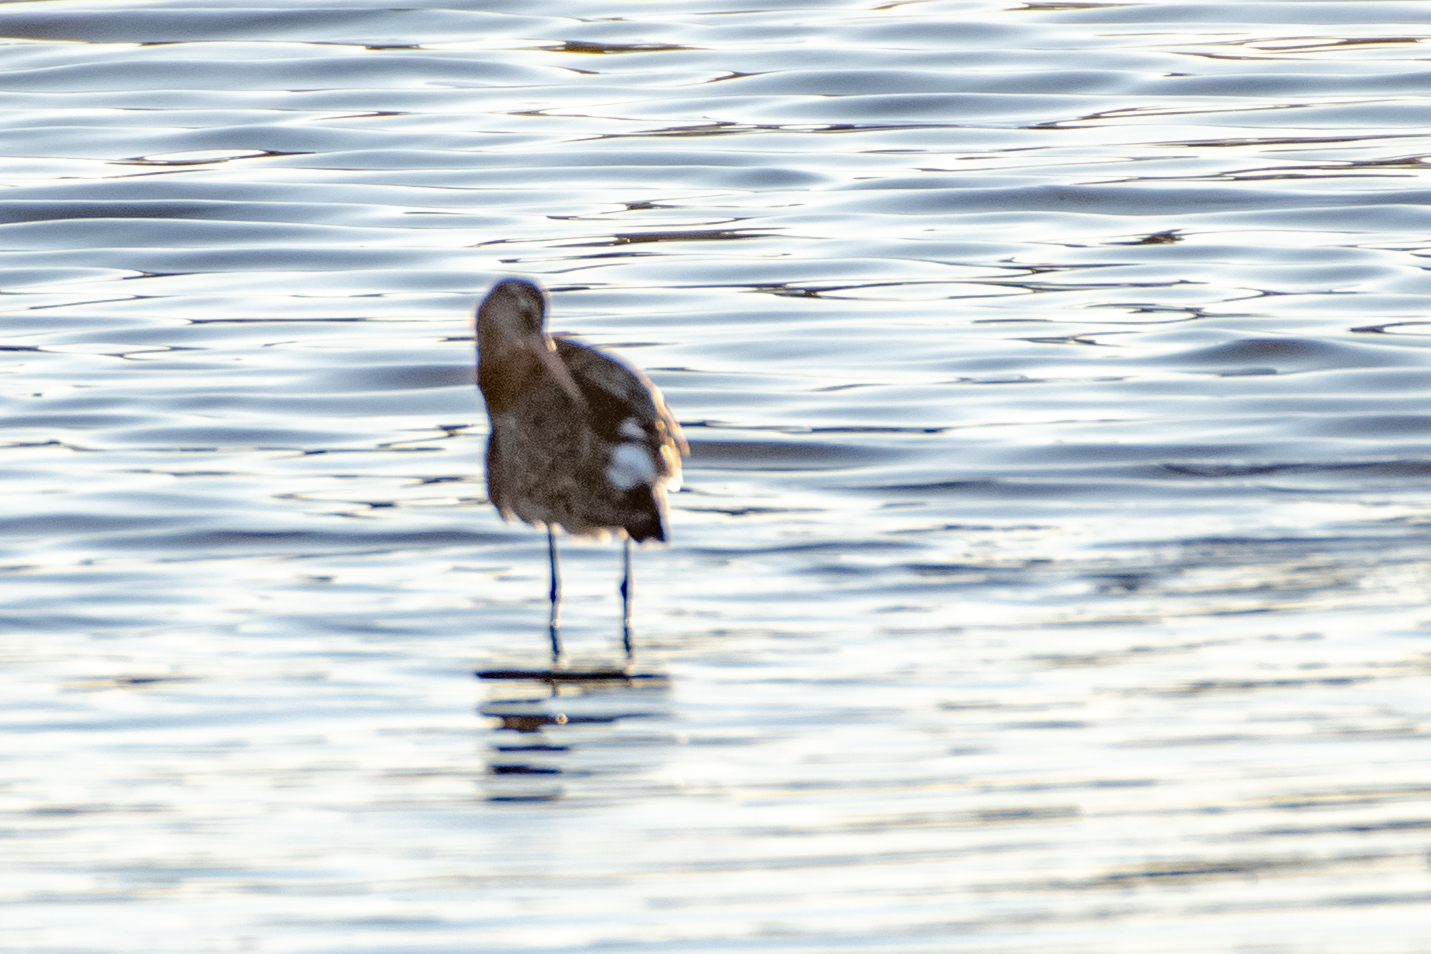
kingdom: Animalia
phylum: Chordata
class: Aves
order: Charadriiformes
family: Scolopacidae
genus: Limosa
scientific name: Limosa limosa
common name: Black-tailed godwit
